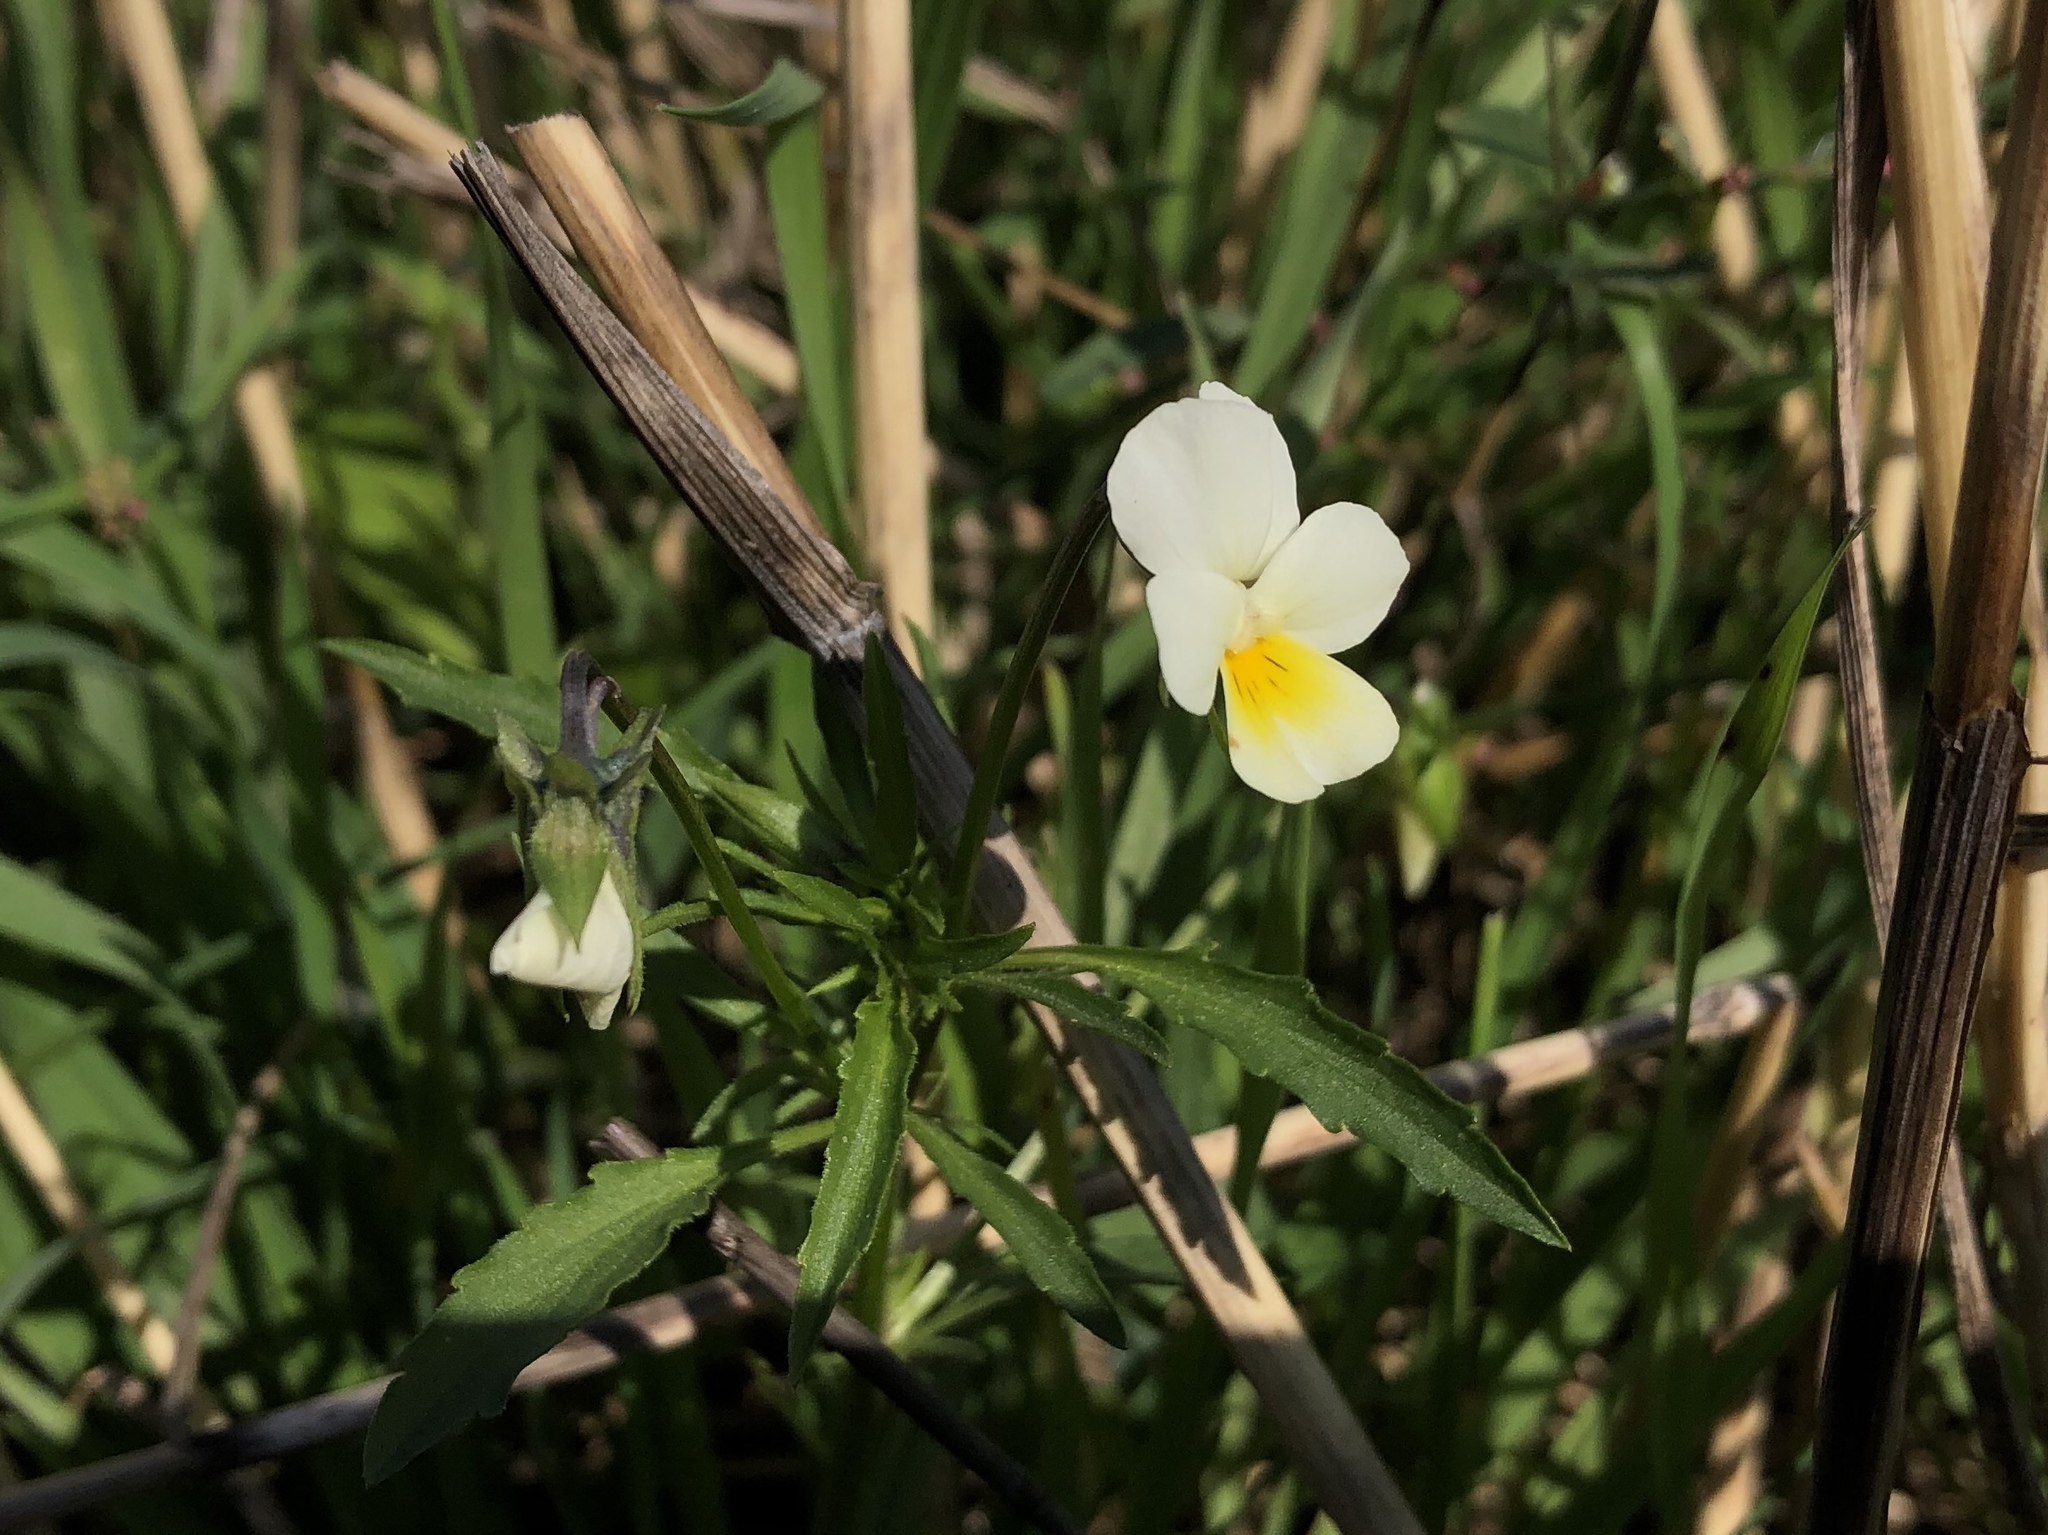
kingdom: Plantae
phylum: Tracheophyta
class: Magnoliopsida
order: Malpighiales
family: Violaceae
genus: Viola
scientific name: Viola arvensis
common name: Field pansy
